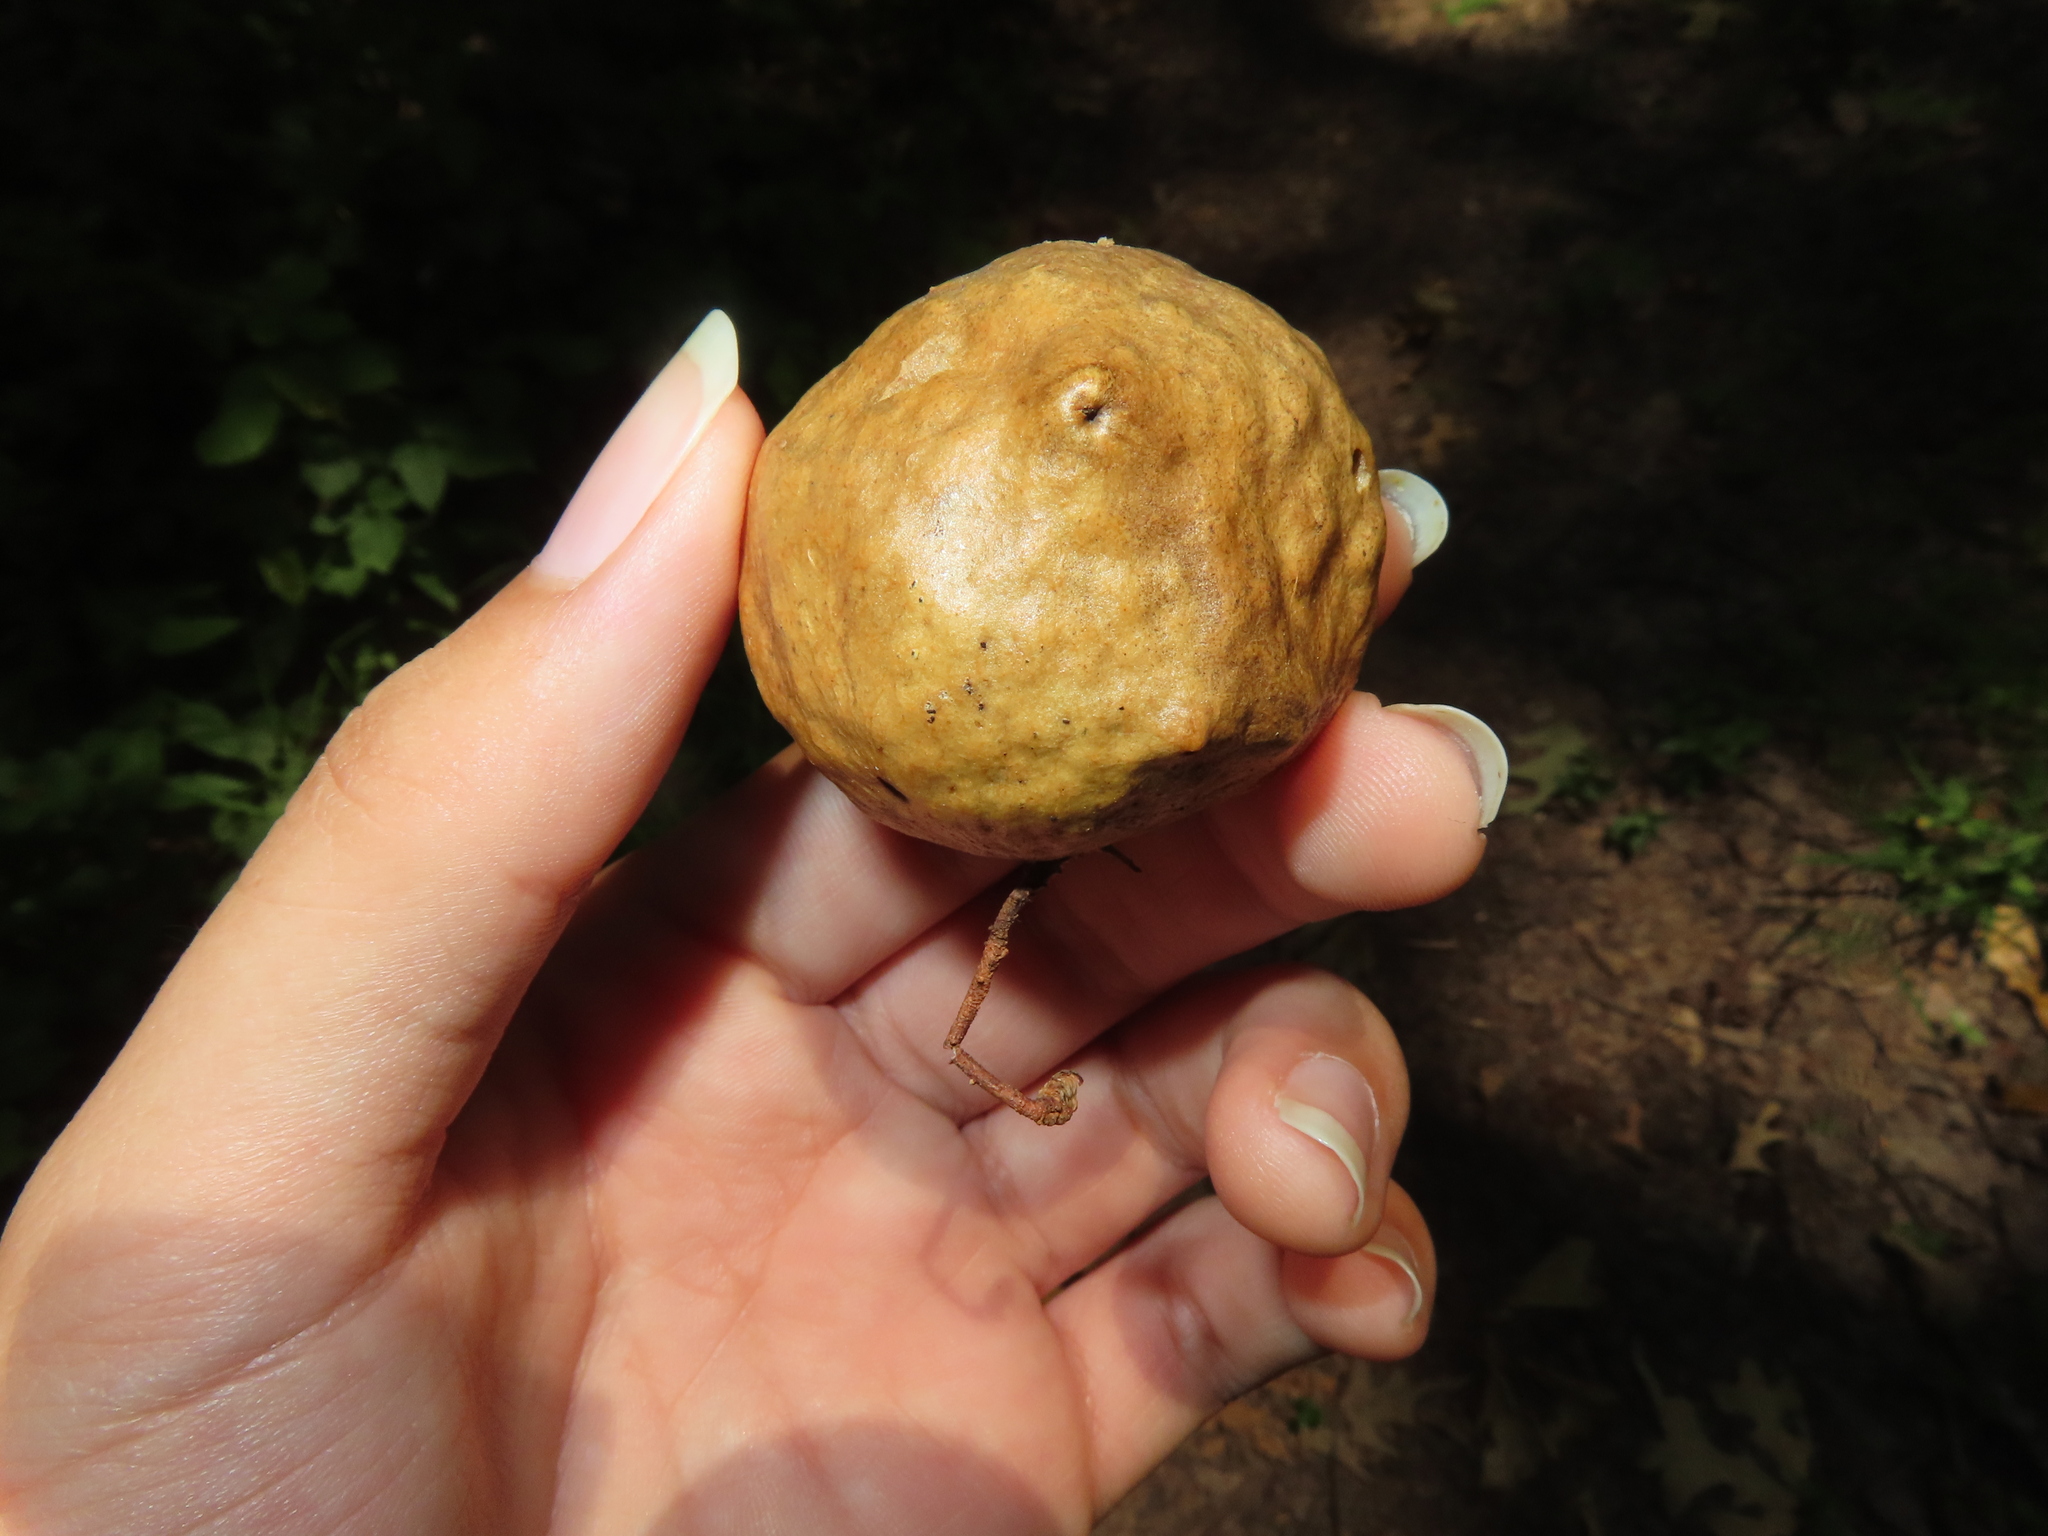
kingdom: Animalia
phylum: Arthropoda
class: Insecta
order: Hymenoptera
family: Cynipidae
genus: Amphibolips
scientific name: Amphibolips
